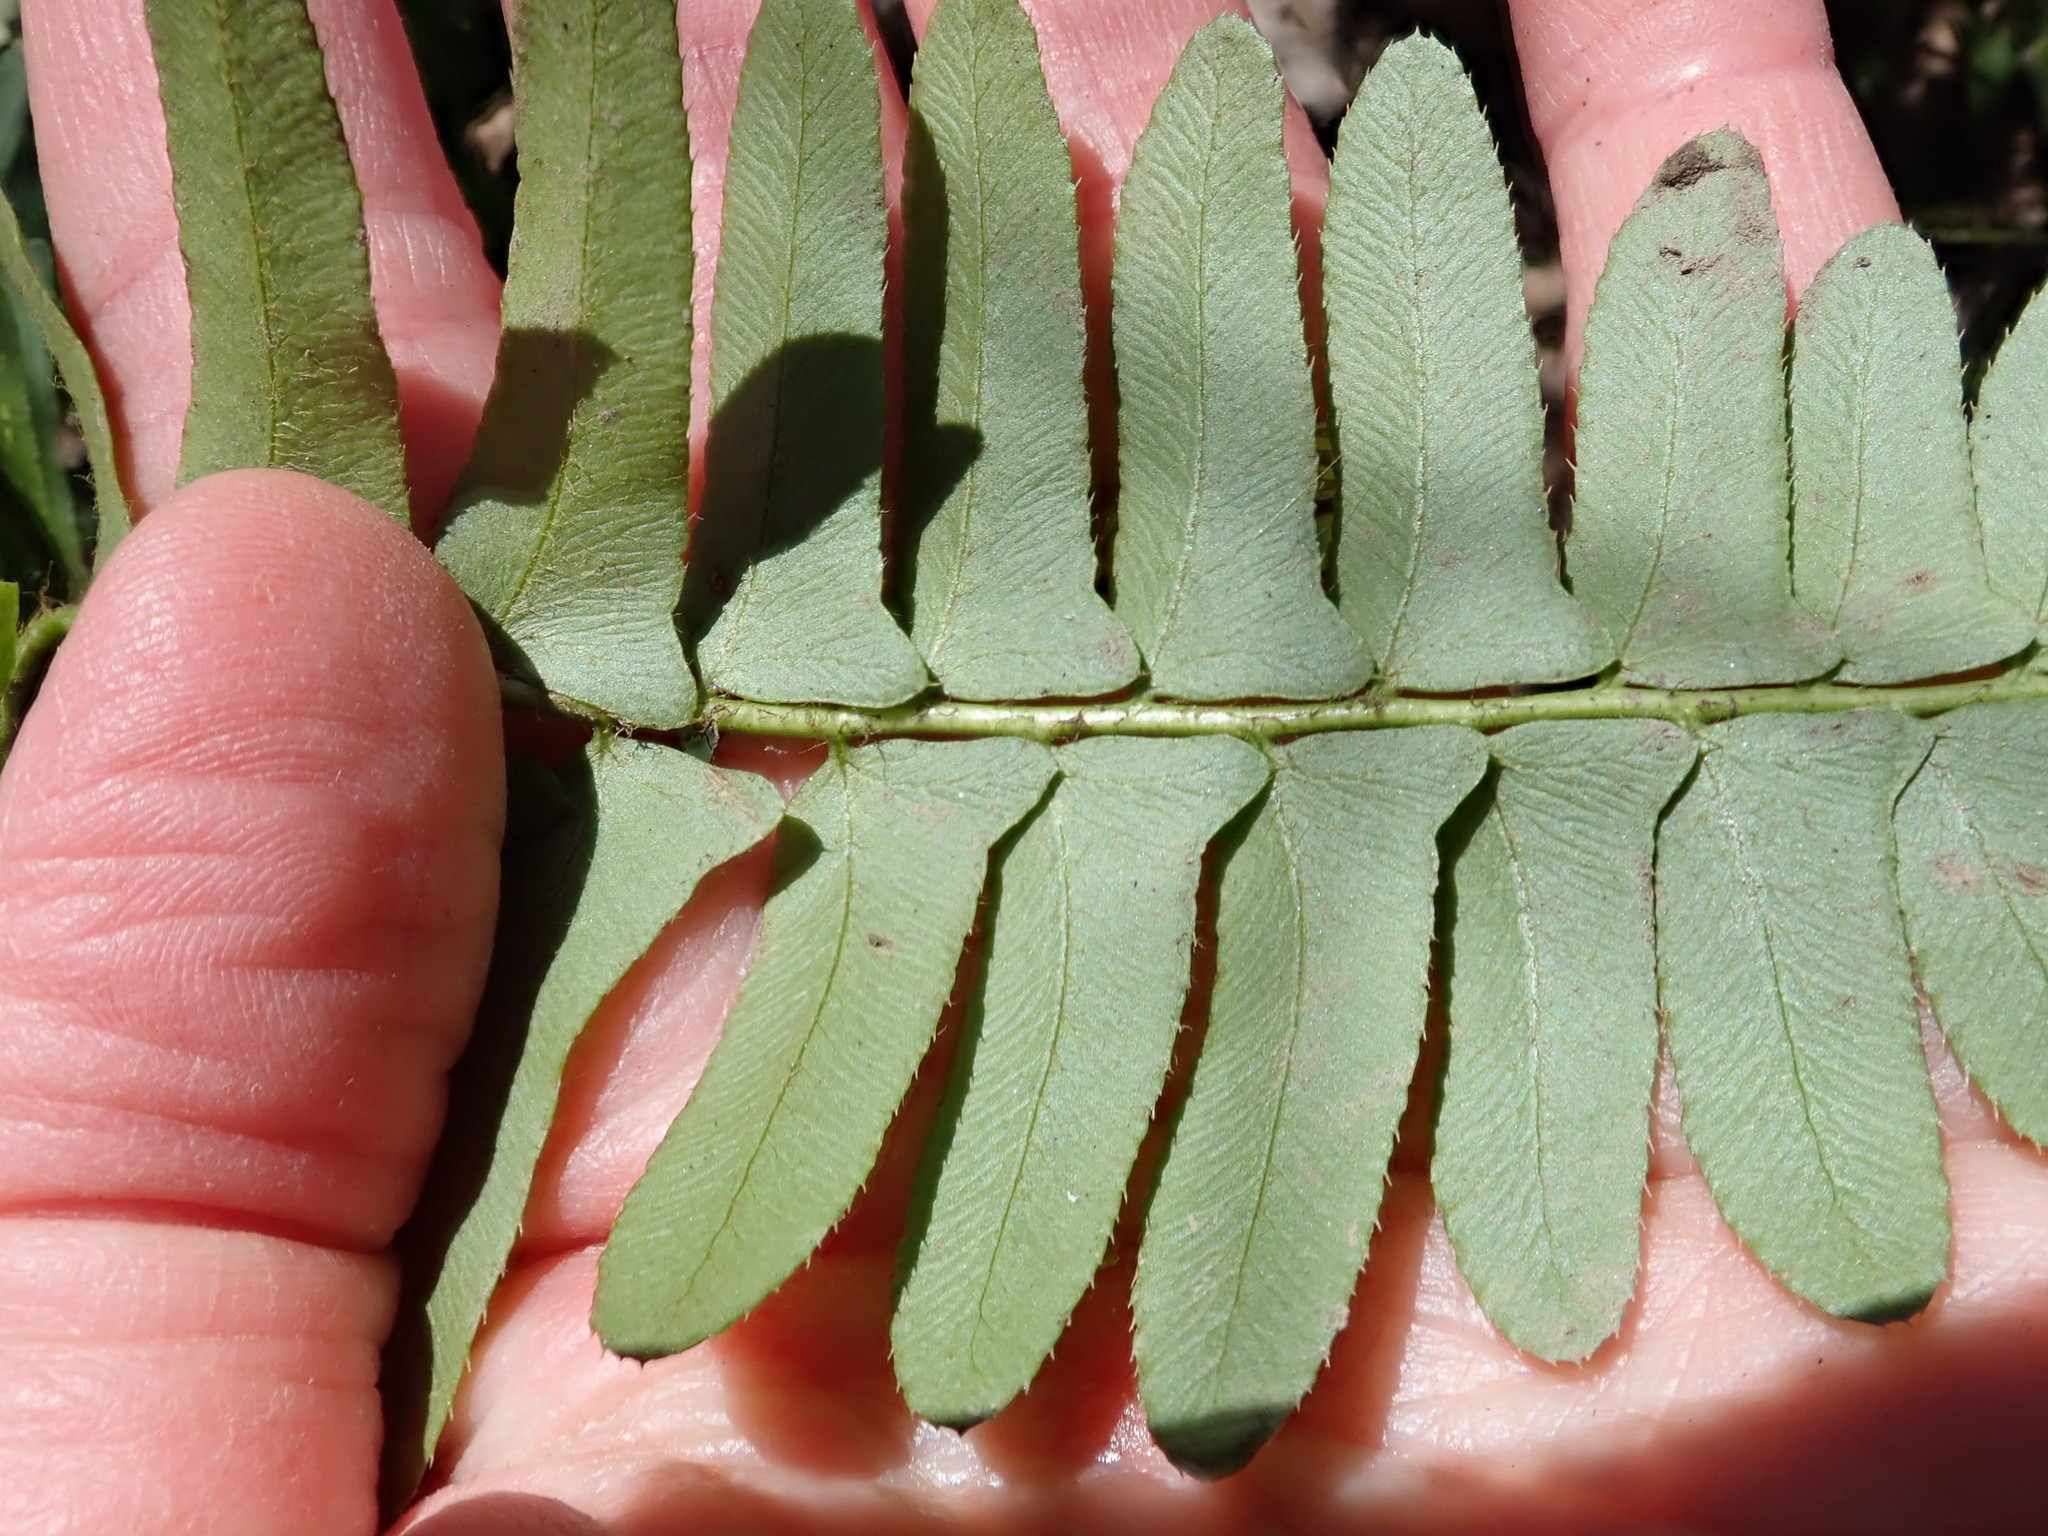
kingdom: Plantae
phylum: Tracheophyta
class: Polypodiopsida
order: Polypodiales
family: Dryopteridaceae
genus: Polystichum
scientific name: Polystichum acrostichoides
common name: Christmas fern
